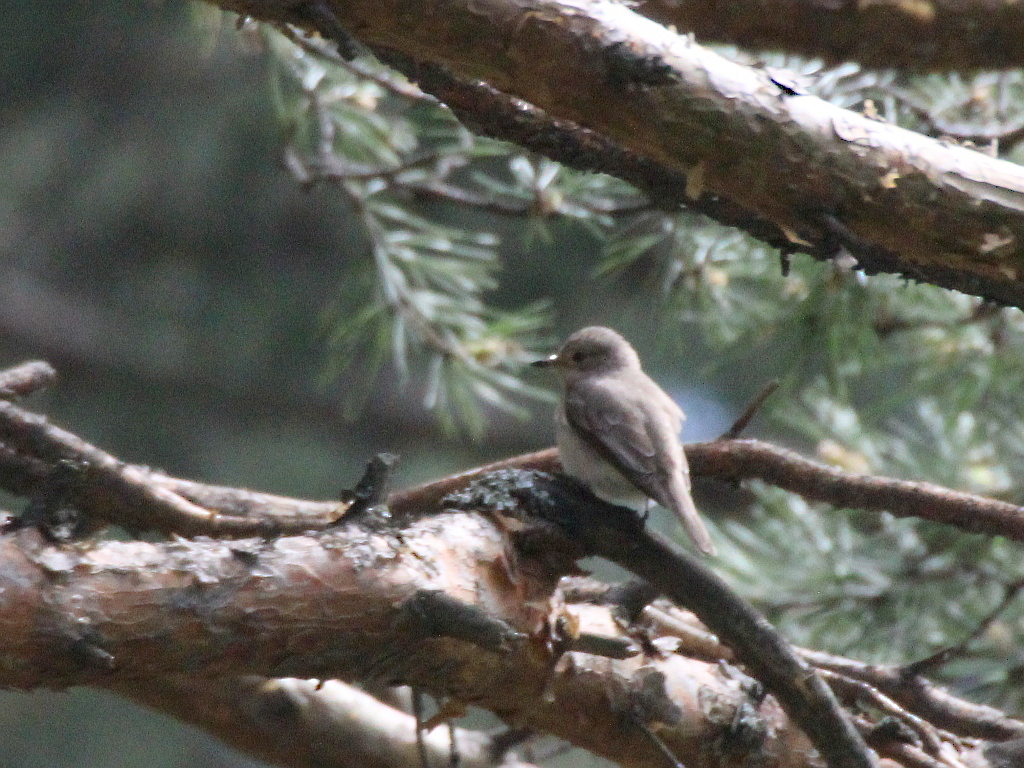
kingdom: Animalia
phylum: Chordata
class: Aves
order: Passeriformes
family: Muscicapidae
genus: Muscicapa
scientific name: Muscicapa striata
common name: Spotted flycatcher
